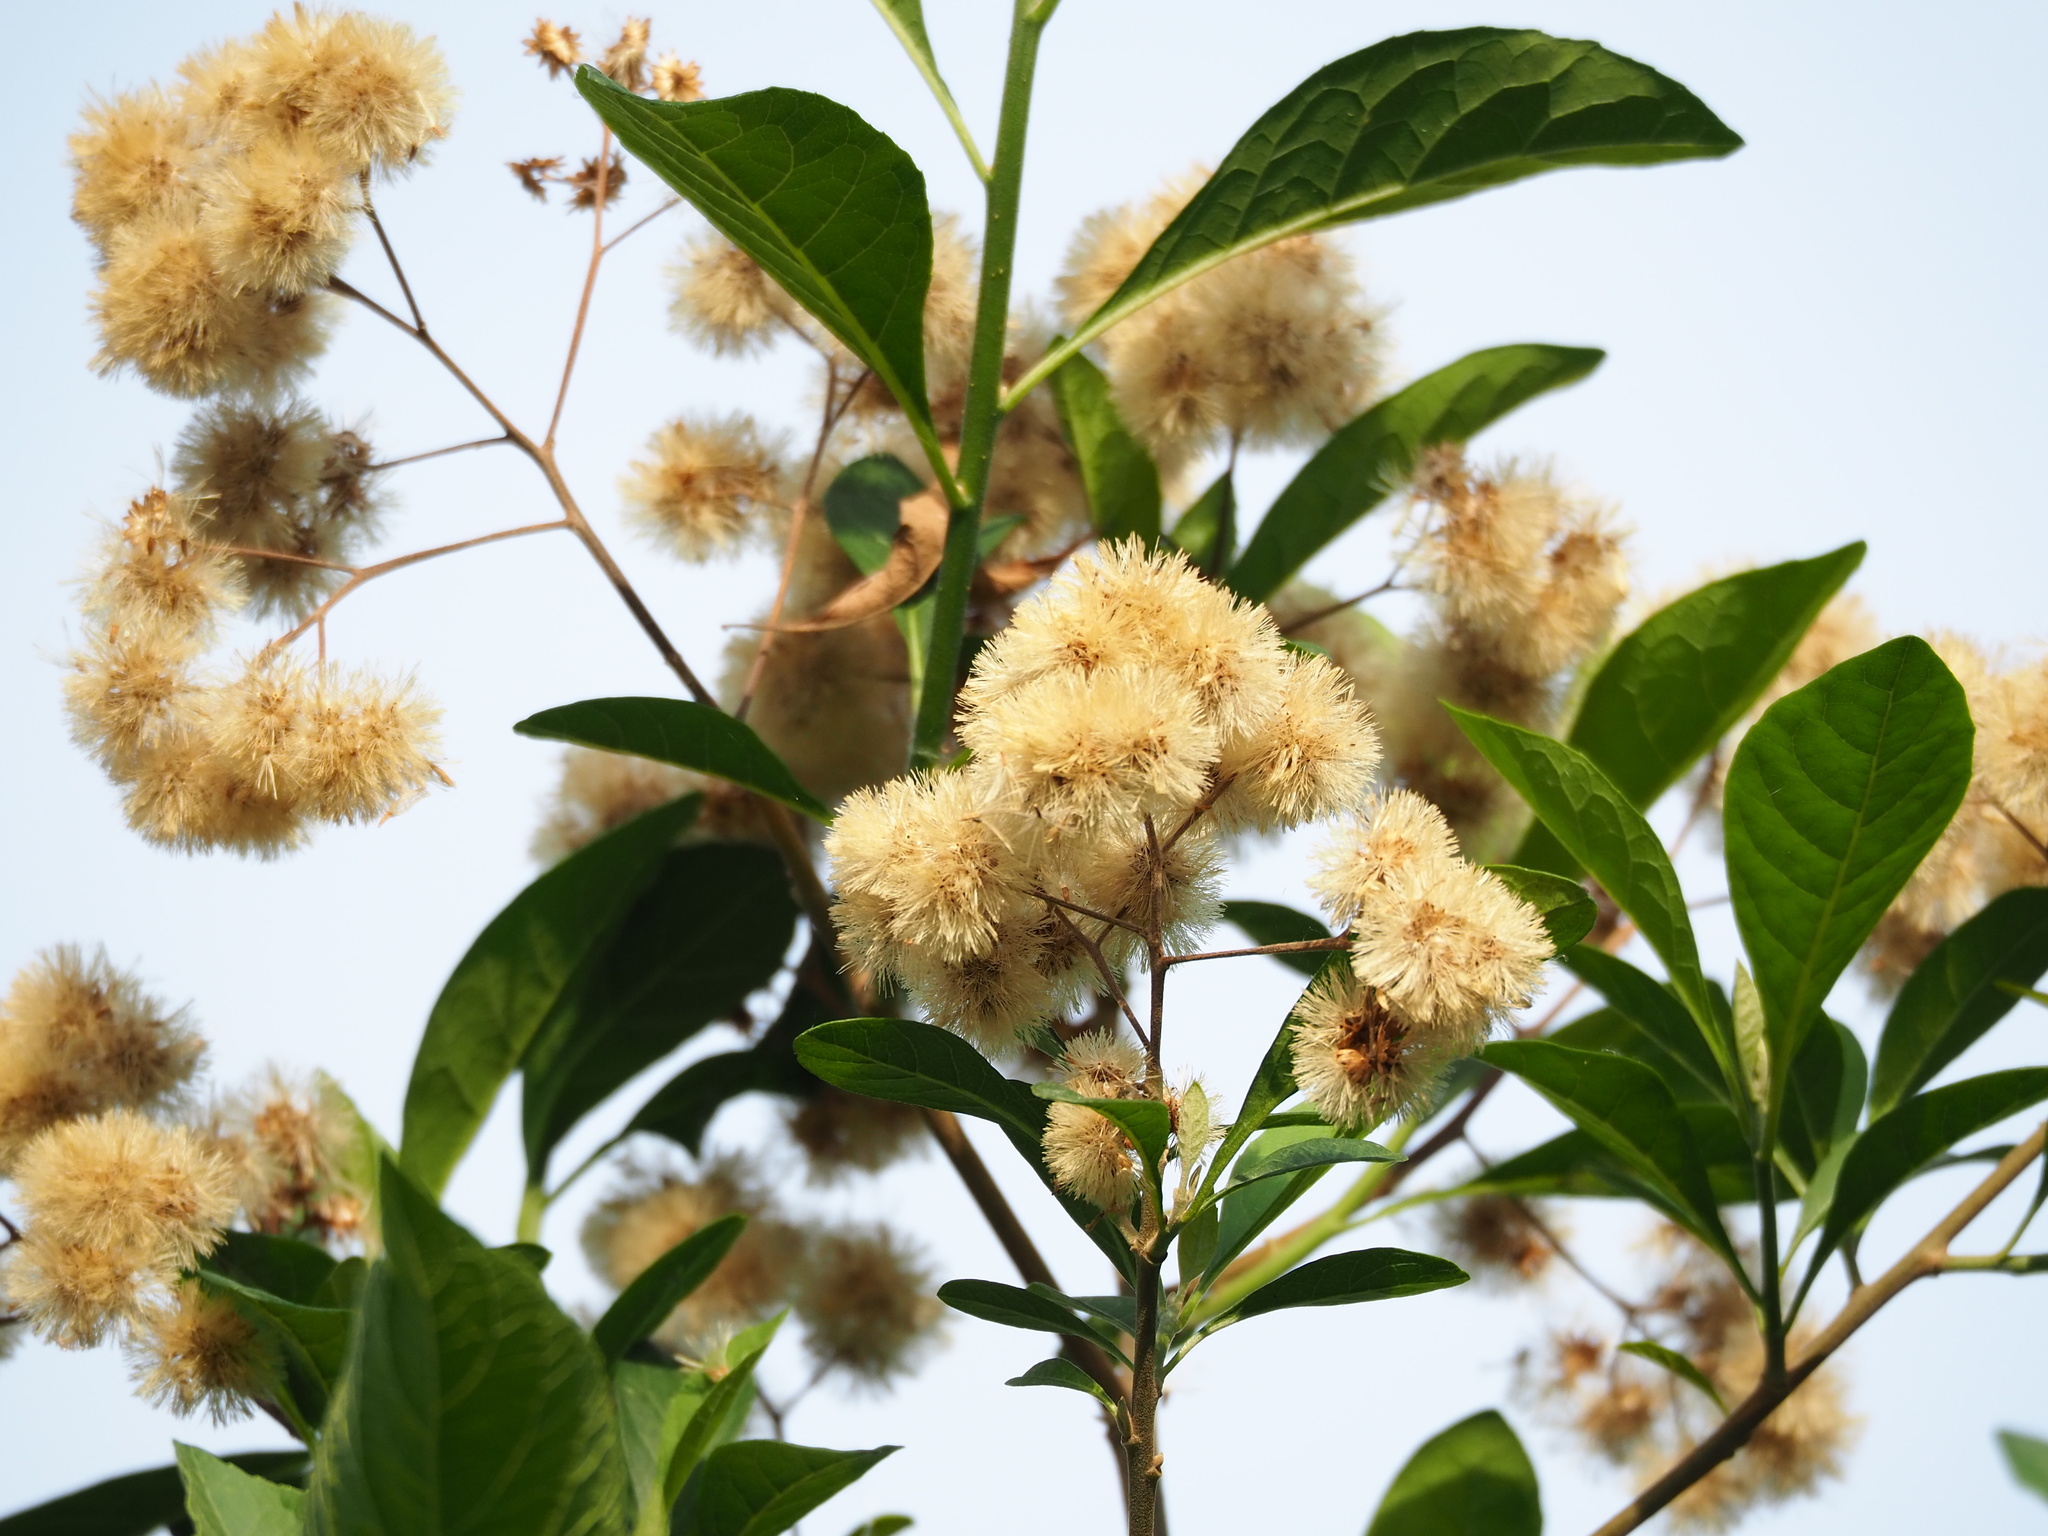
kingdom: Plantae
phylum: Tracheophyta
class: Magnoliopsida
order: Asterales
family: Asteraceae
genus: Gymnanthemum
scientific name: Gymnanthemum amygdalinum
